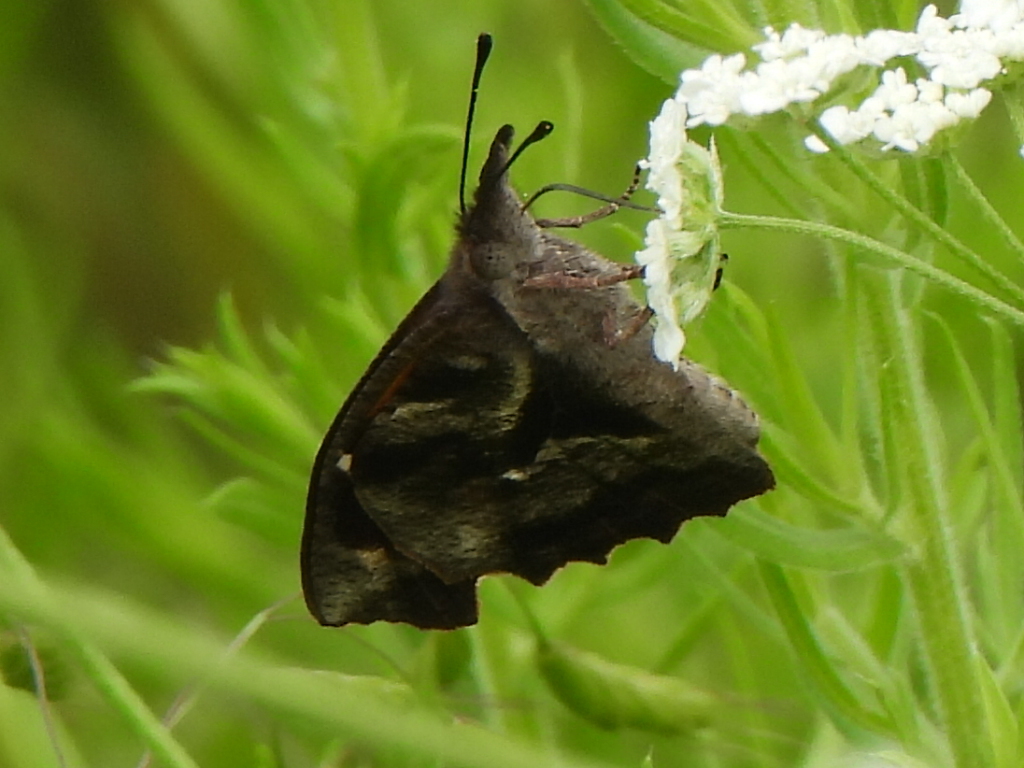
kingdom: Animalia
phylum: Arthropoda
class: Insecta
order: Lepidoptera
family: Nymphalidae
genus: Libytheana
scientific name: Libytheana carinenta
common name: American snout
